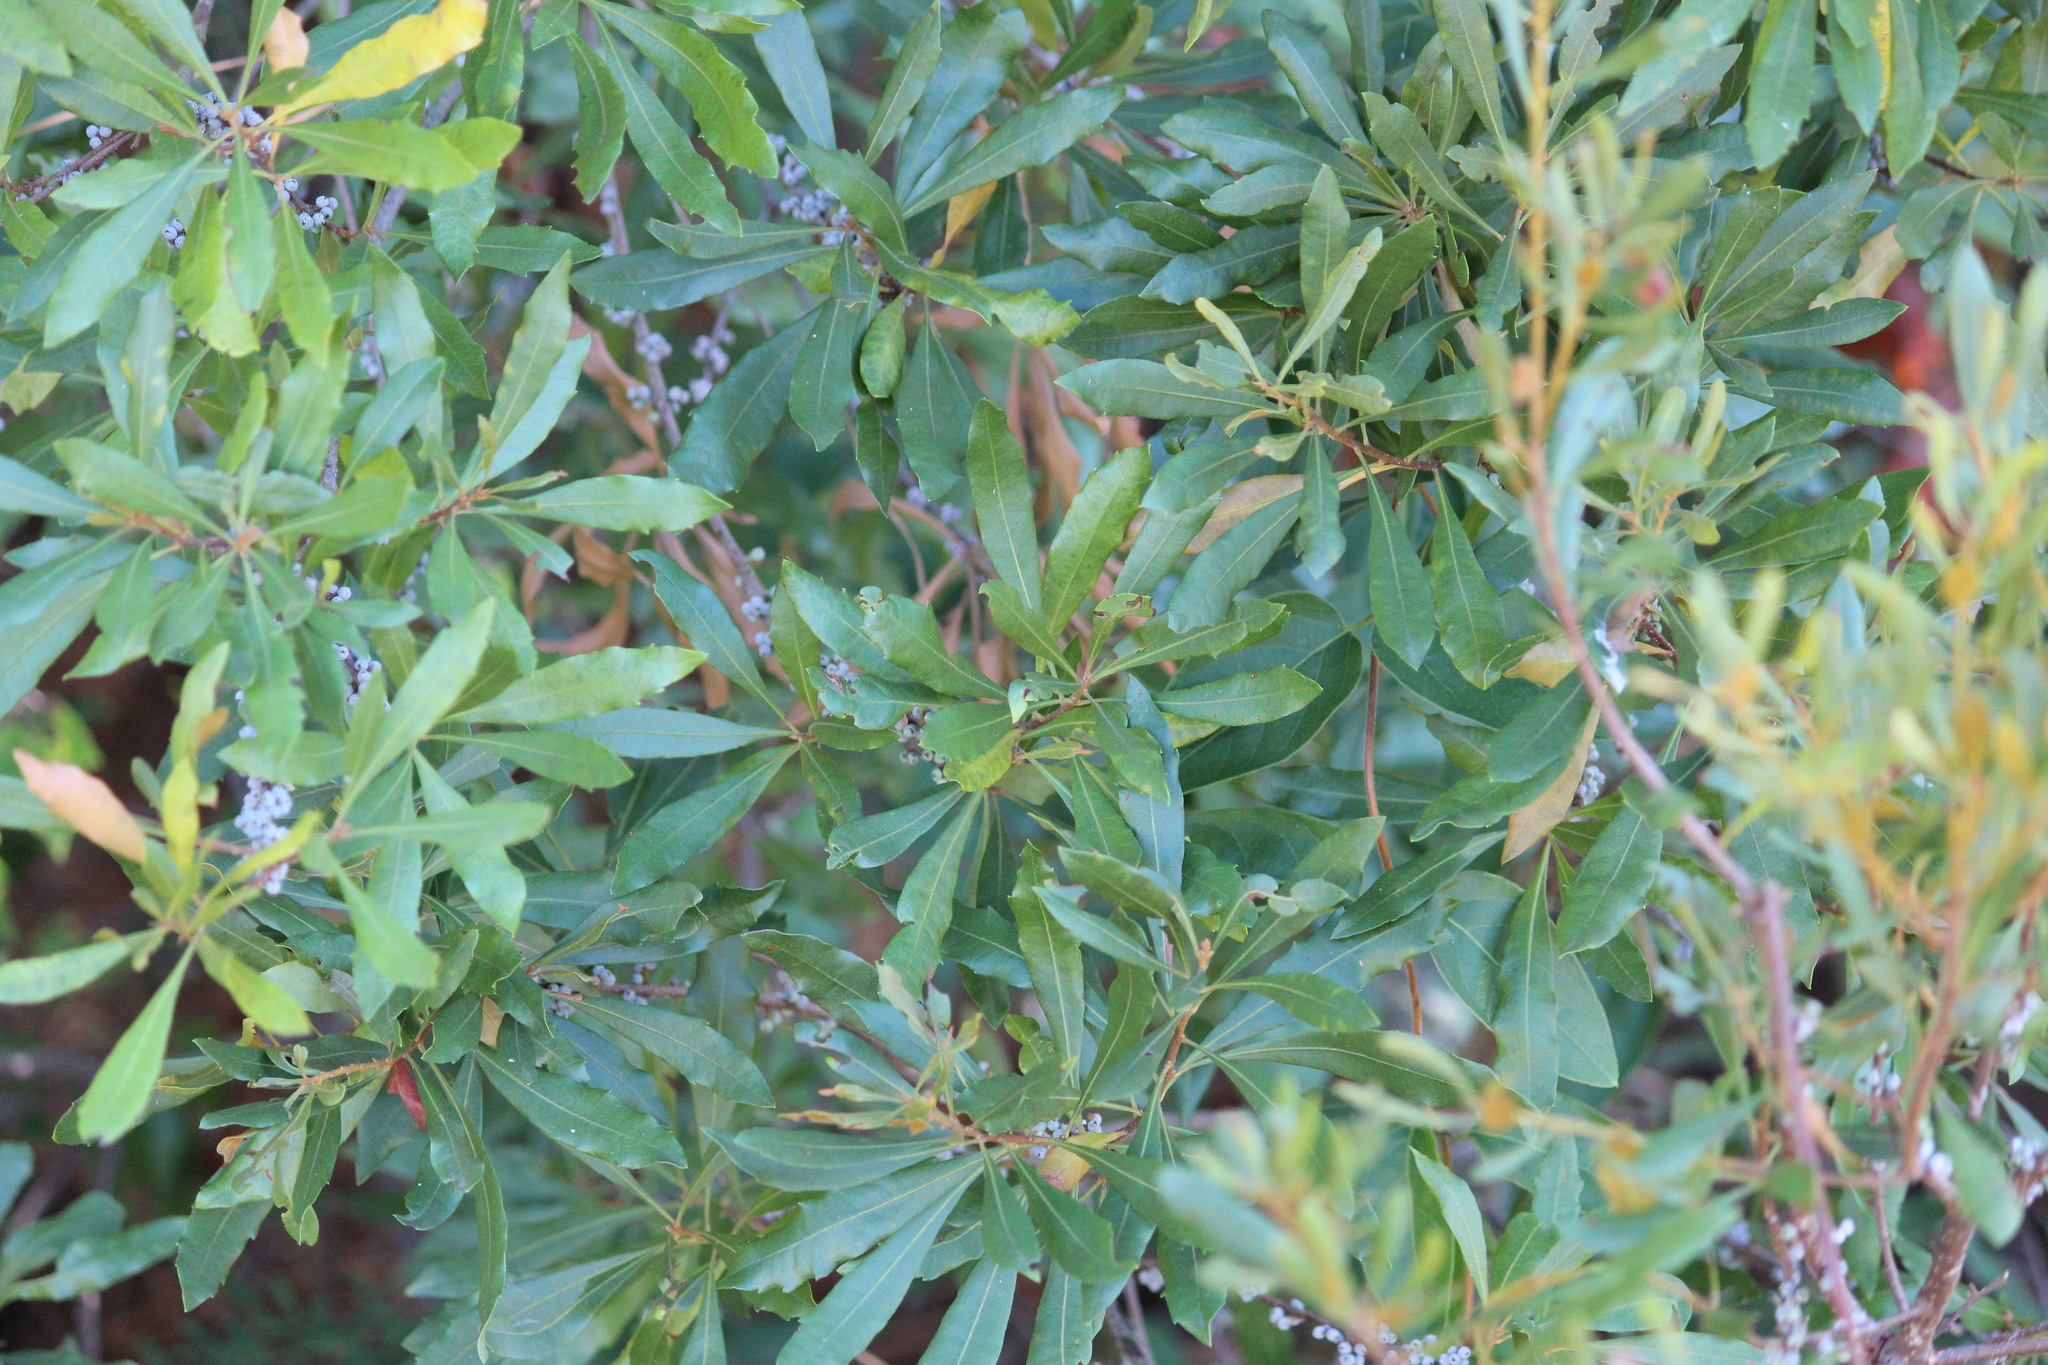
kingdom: Plantae
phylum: Tracheophyta
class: Magnoliopsida
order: Fagales
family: Myricaceae
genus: Morella
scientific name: Morella cerifera
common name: Wax myrtle
